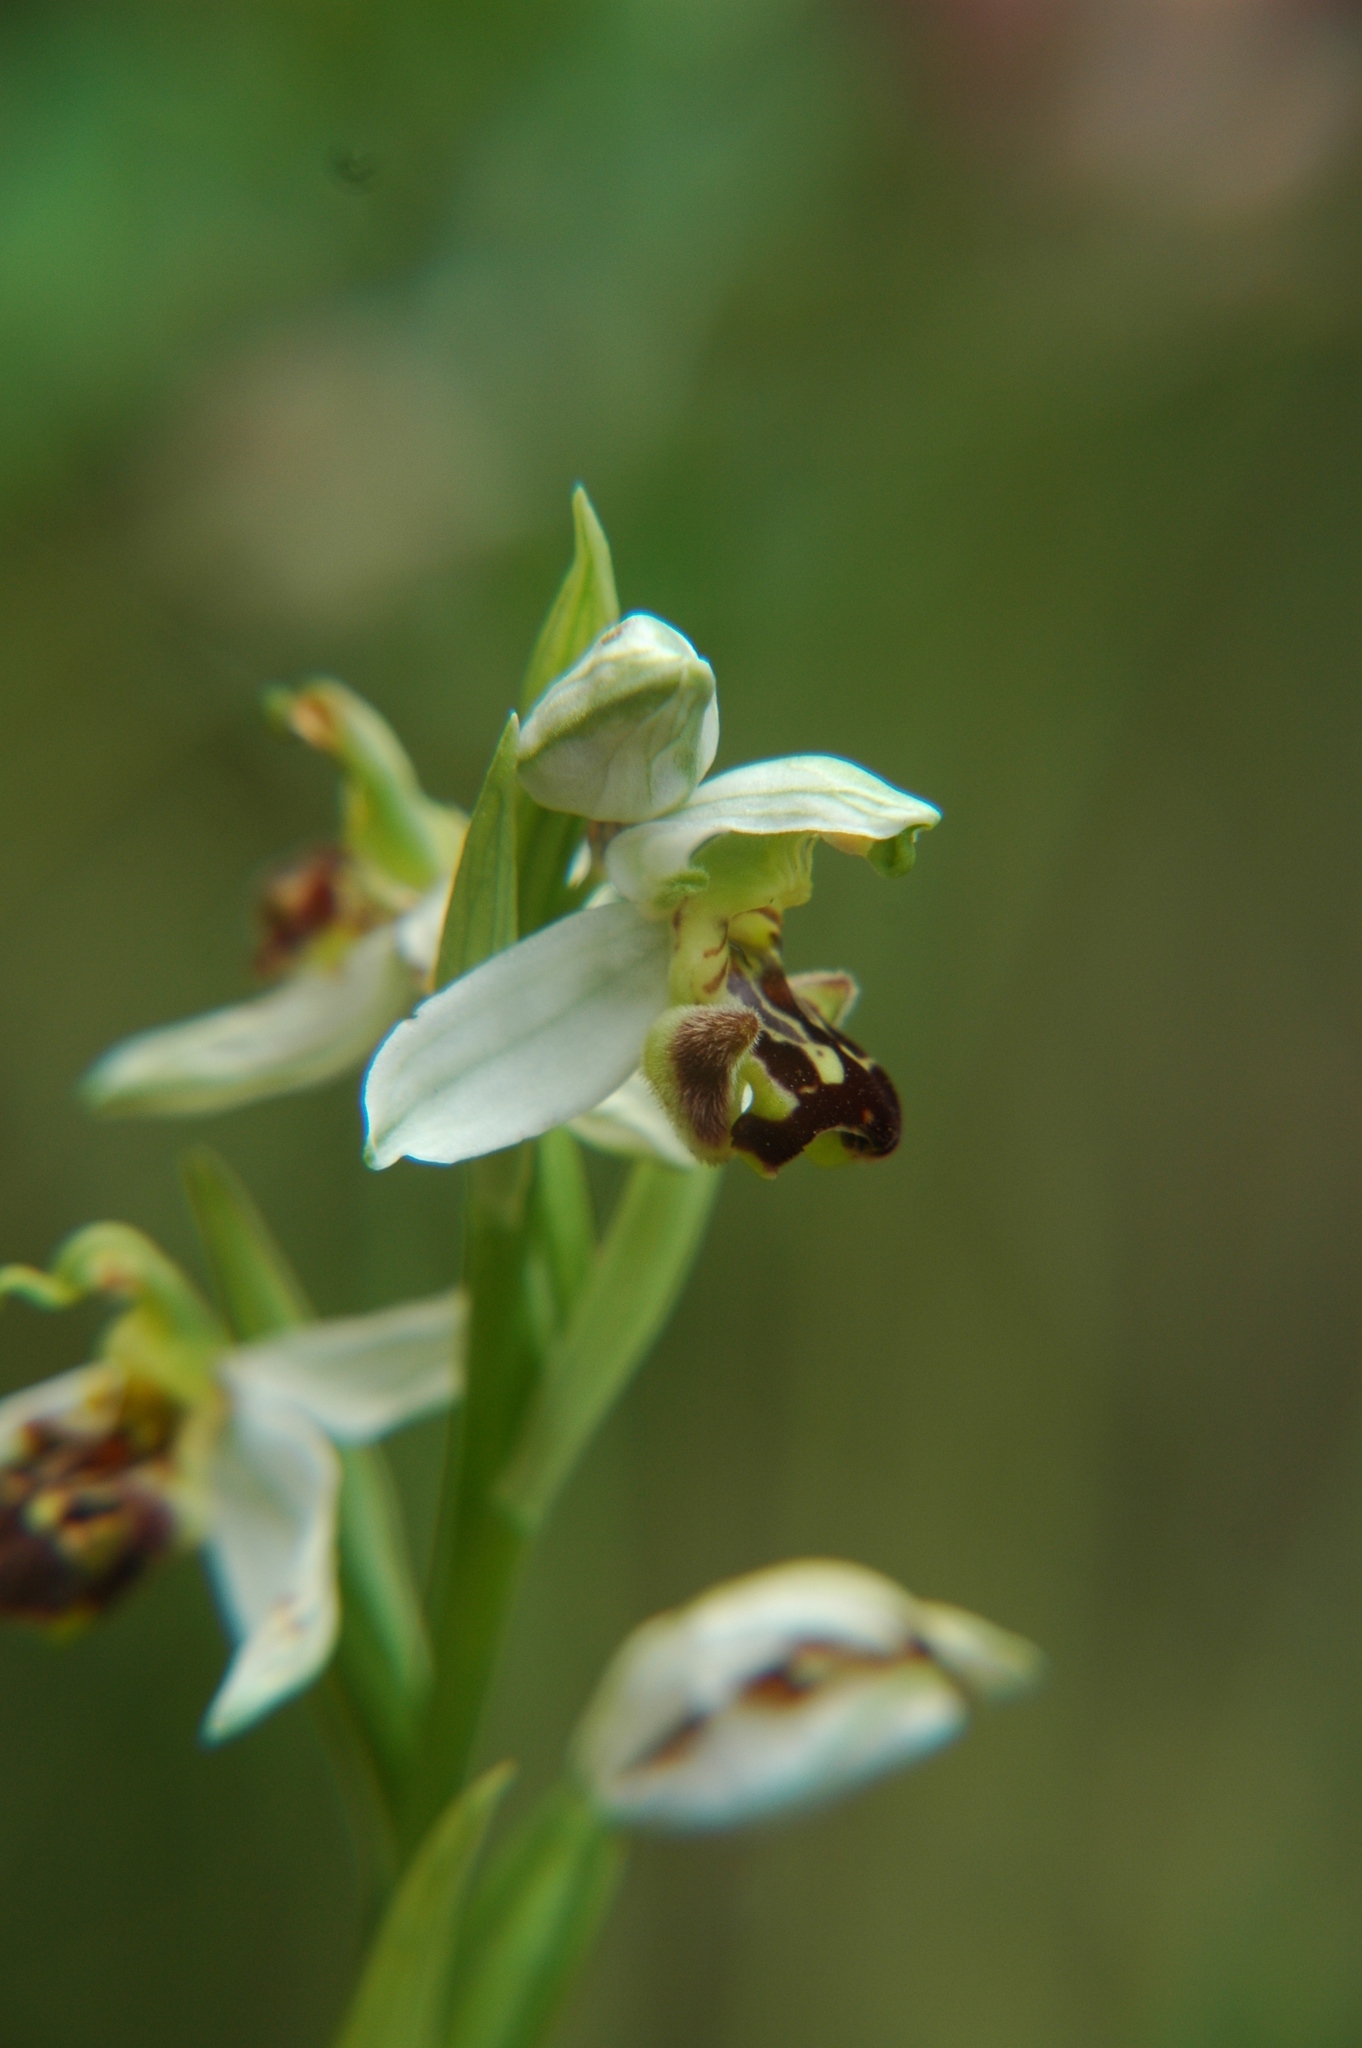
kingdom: Plantae
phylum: Tracheophyta
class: Liliopsida
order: Asparagales
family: Orchidaceae
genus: Ophrys
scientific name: Ophrys apifera
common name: Bee orchid
